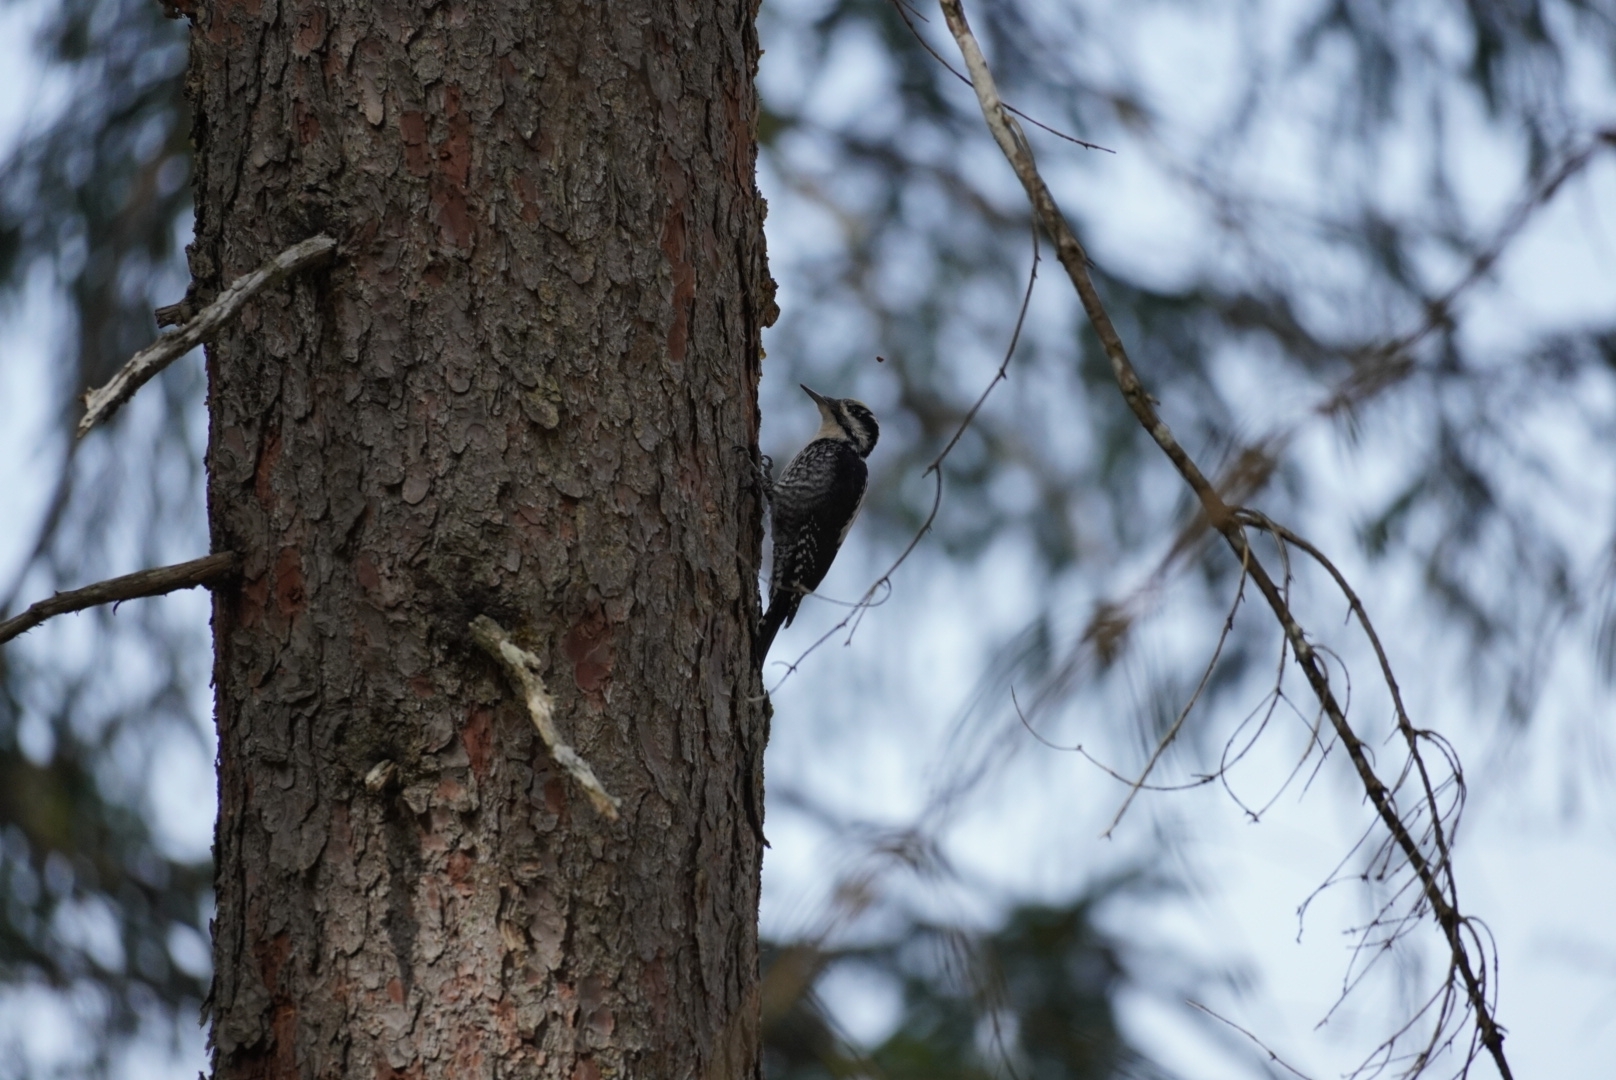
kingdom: Animalia
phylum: Chordata
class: Aves
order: Piciformes
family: Picidae
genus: Picoides
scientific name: Picoides tridactylus
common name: Eurasian three-toed woodpecker
